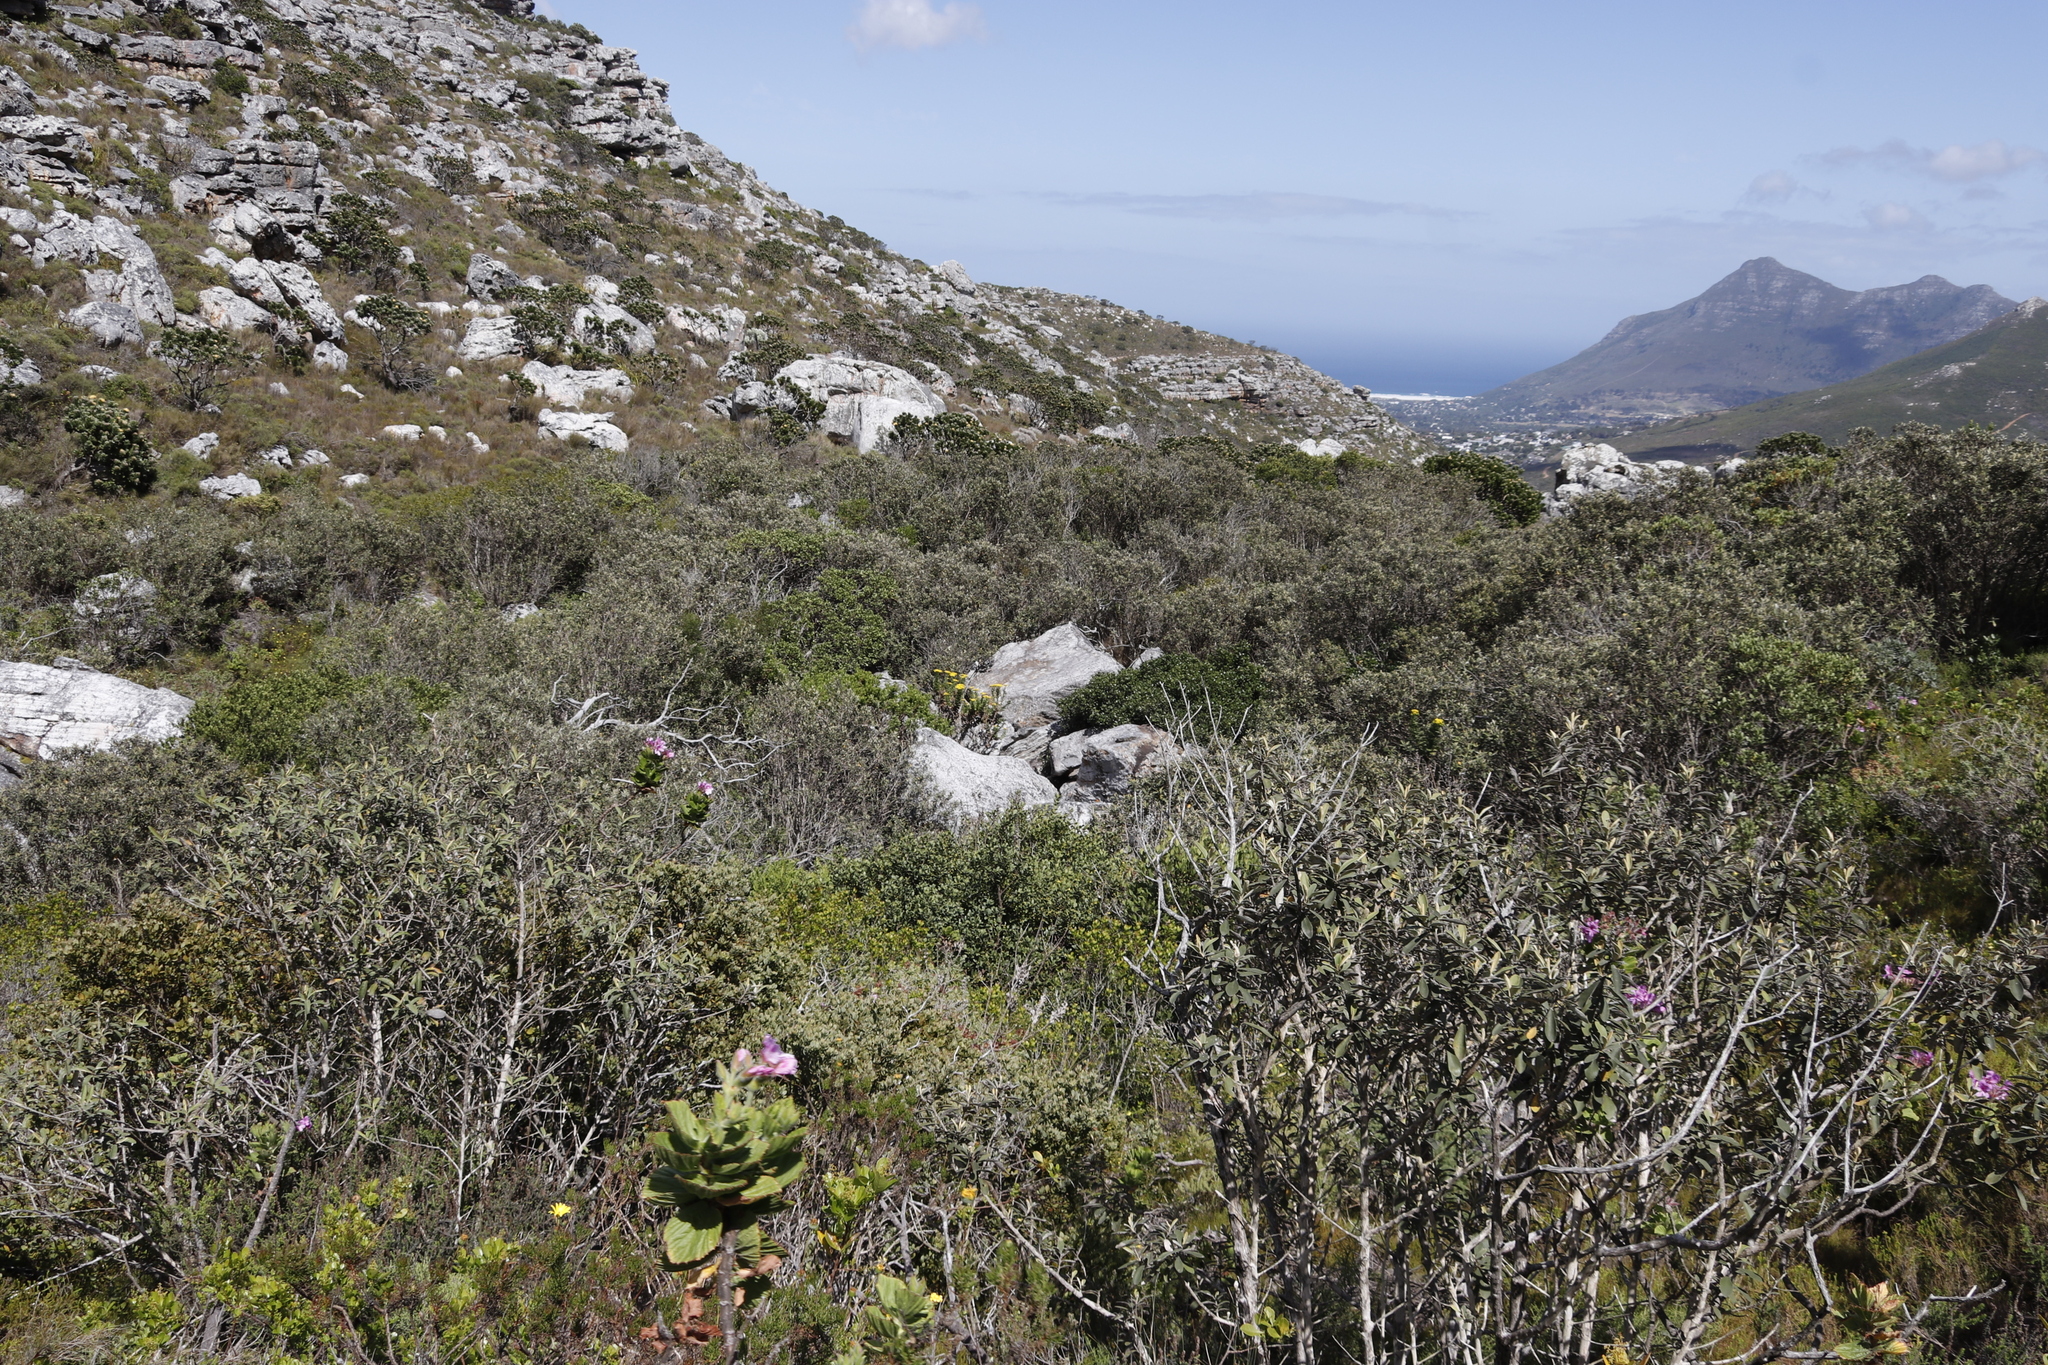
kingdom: Plantae
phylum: Tracheophyta
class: Magnoliopsida
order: Celastrales
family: Celastraceae
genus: Gymnosporia
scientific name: Gymnosporia laurina
